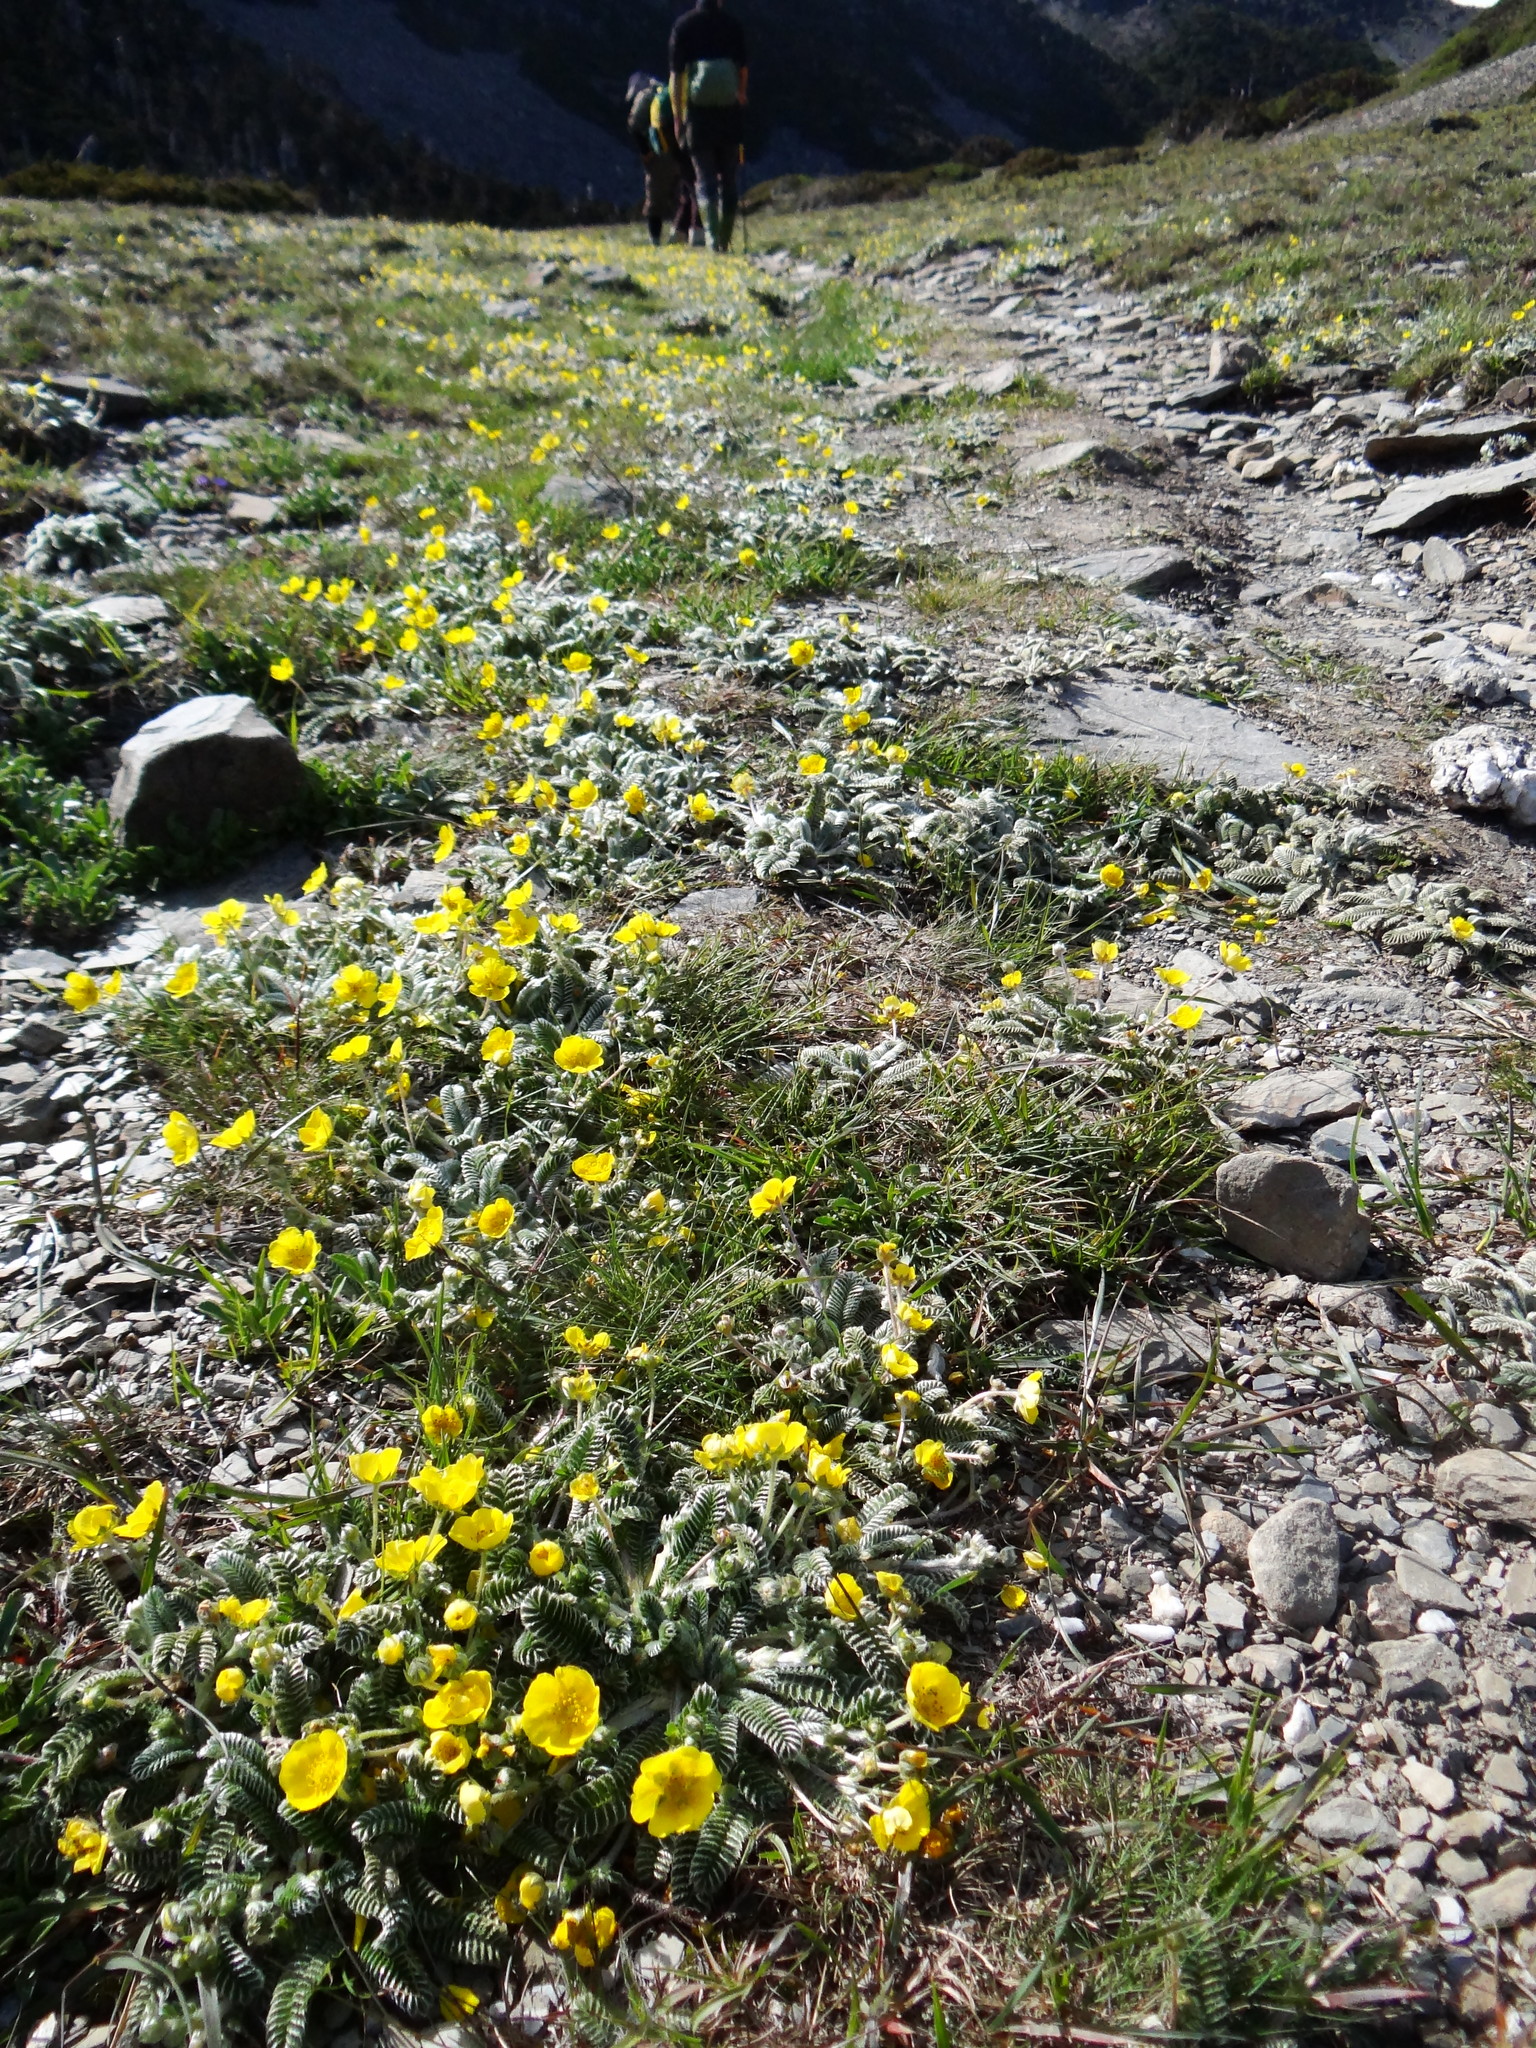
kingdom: Plantae
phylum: Tracheophyta
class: Magnoliopsida
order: Rosales
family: Rosaceae
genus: Argentina
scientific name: Argentina tugitakensis
